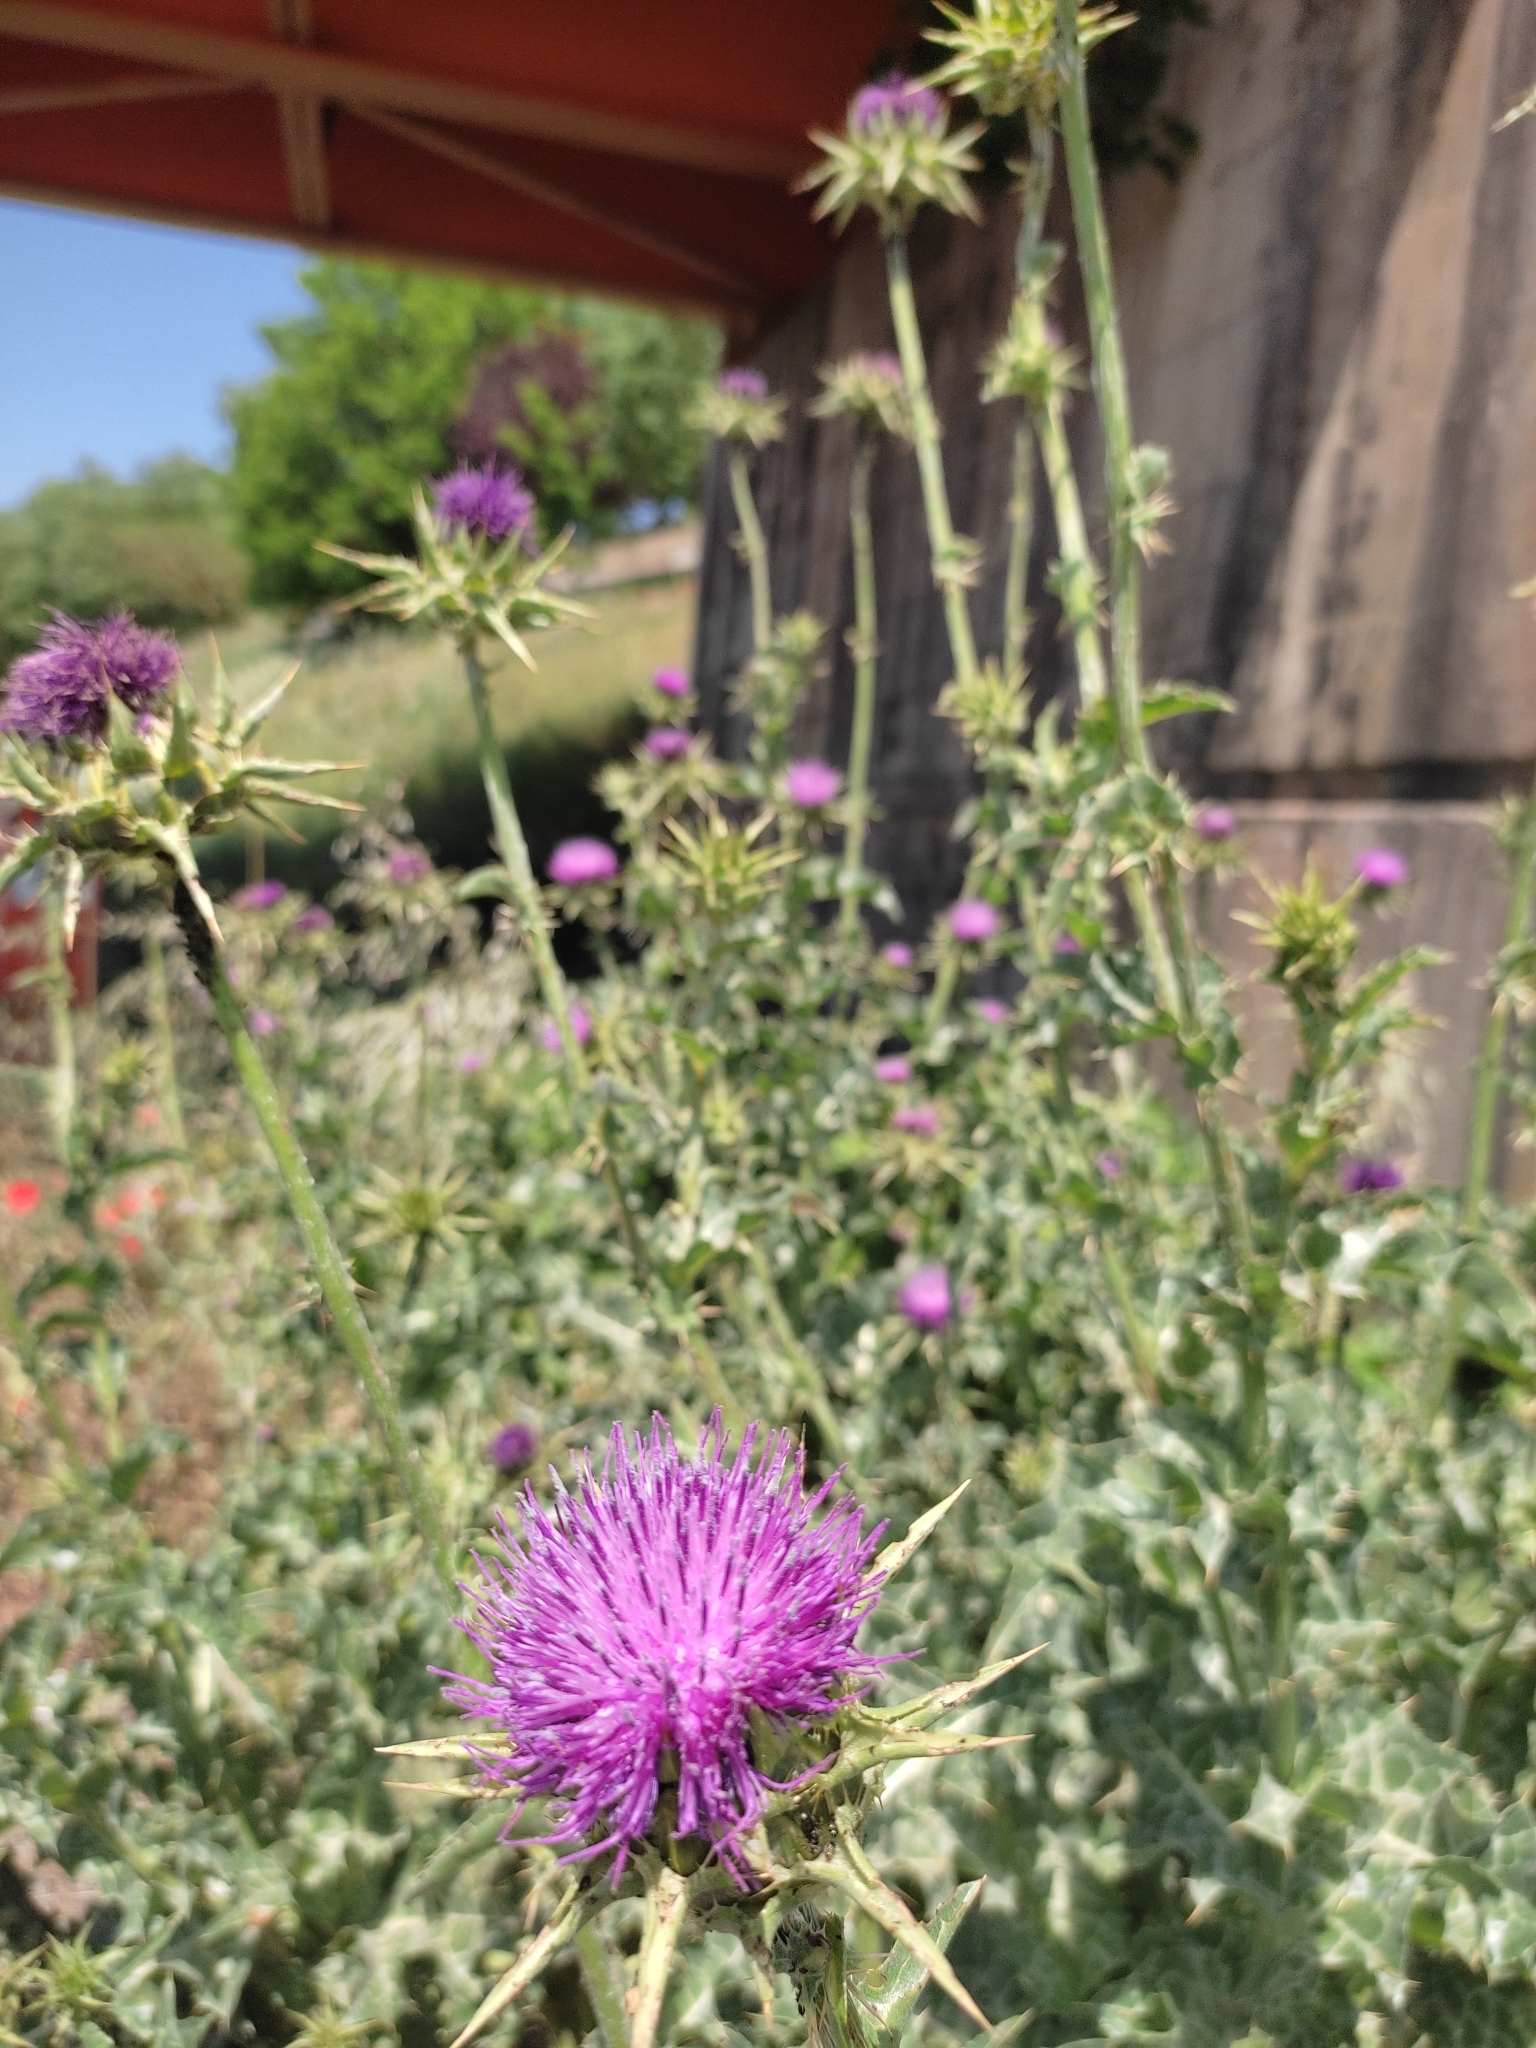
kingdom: Plantae
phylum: Tracheophyta
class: Magnoliopsida
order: Asterales
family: Asteraceae
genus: Silybum
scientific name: Silybum marianum
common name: Milk thistle
